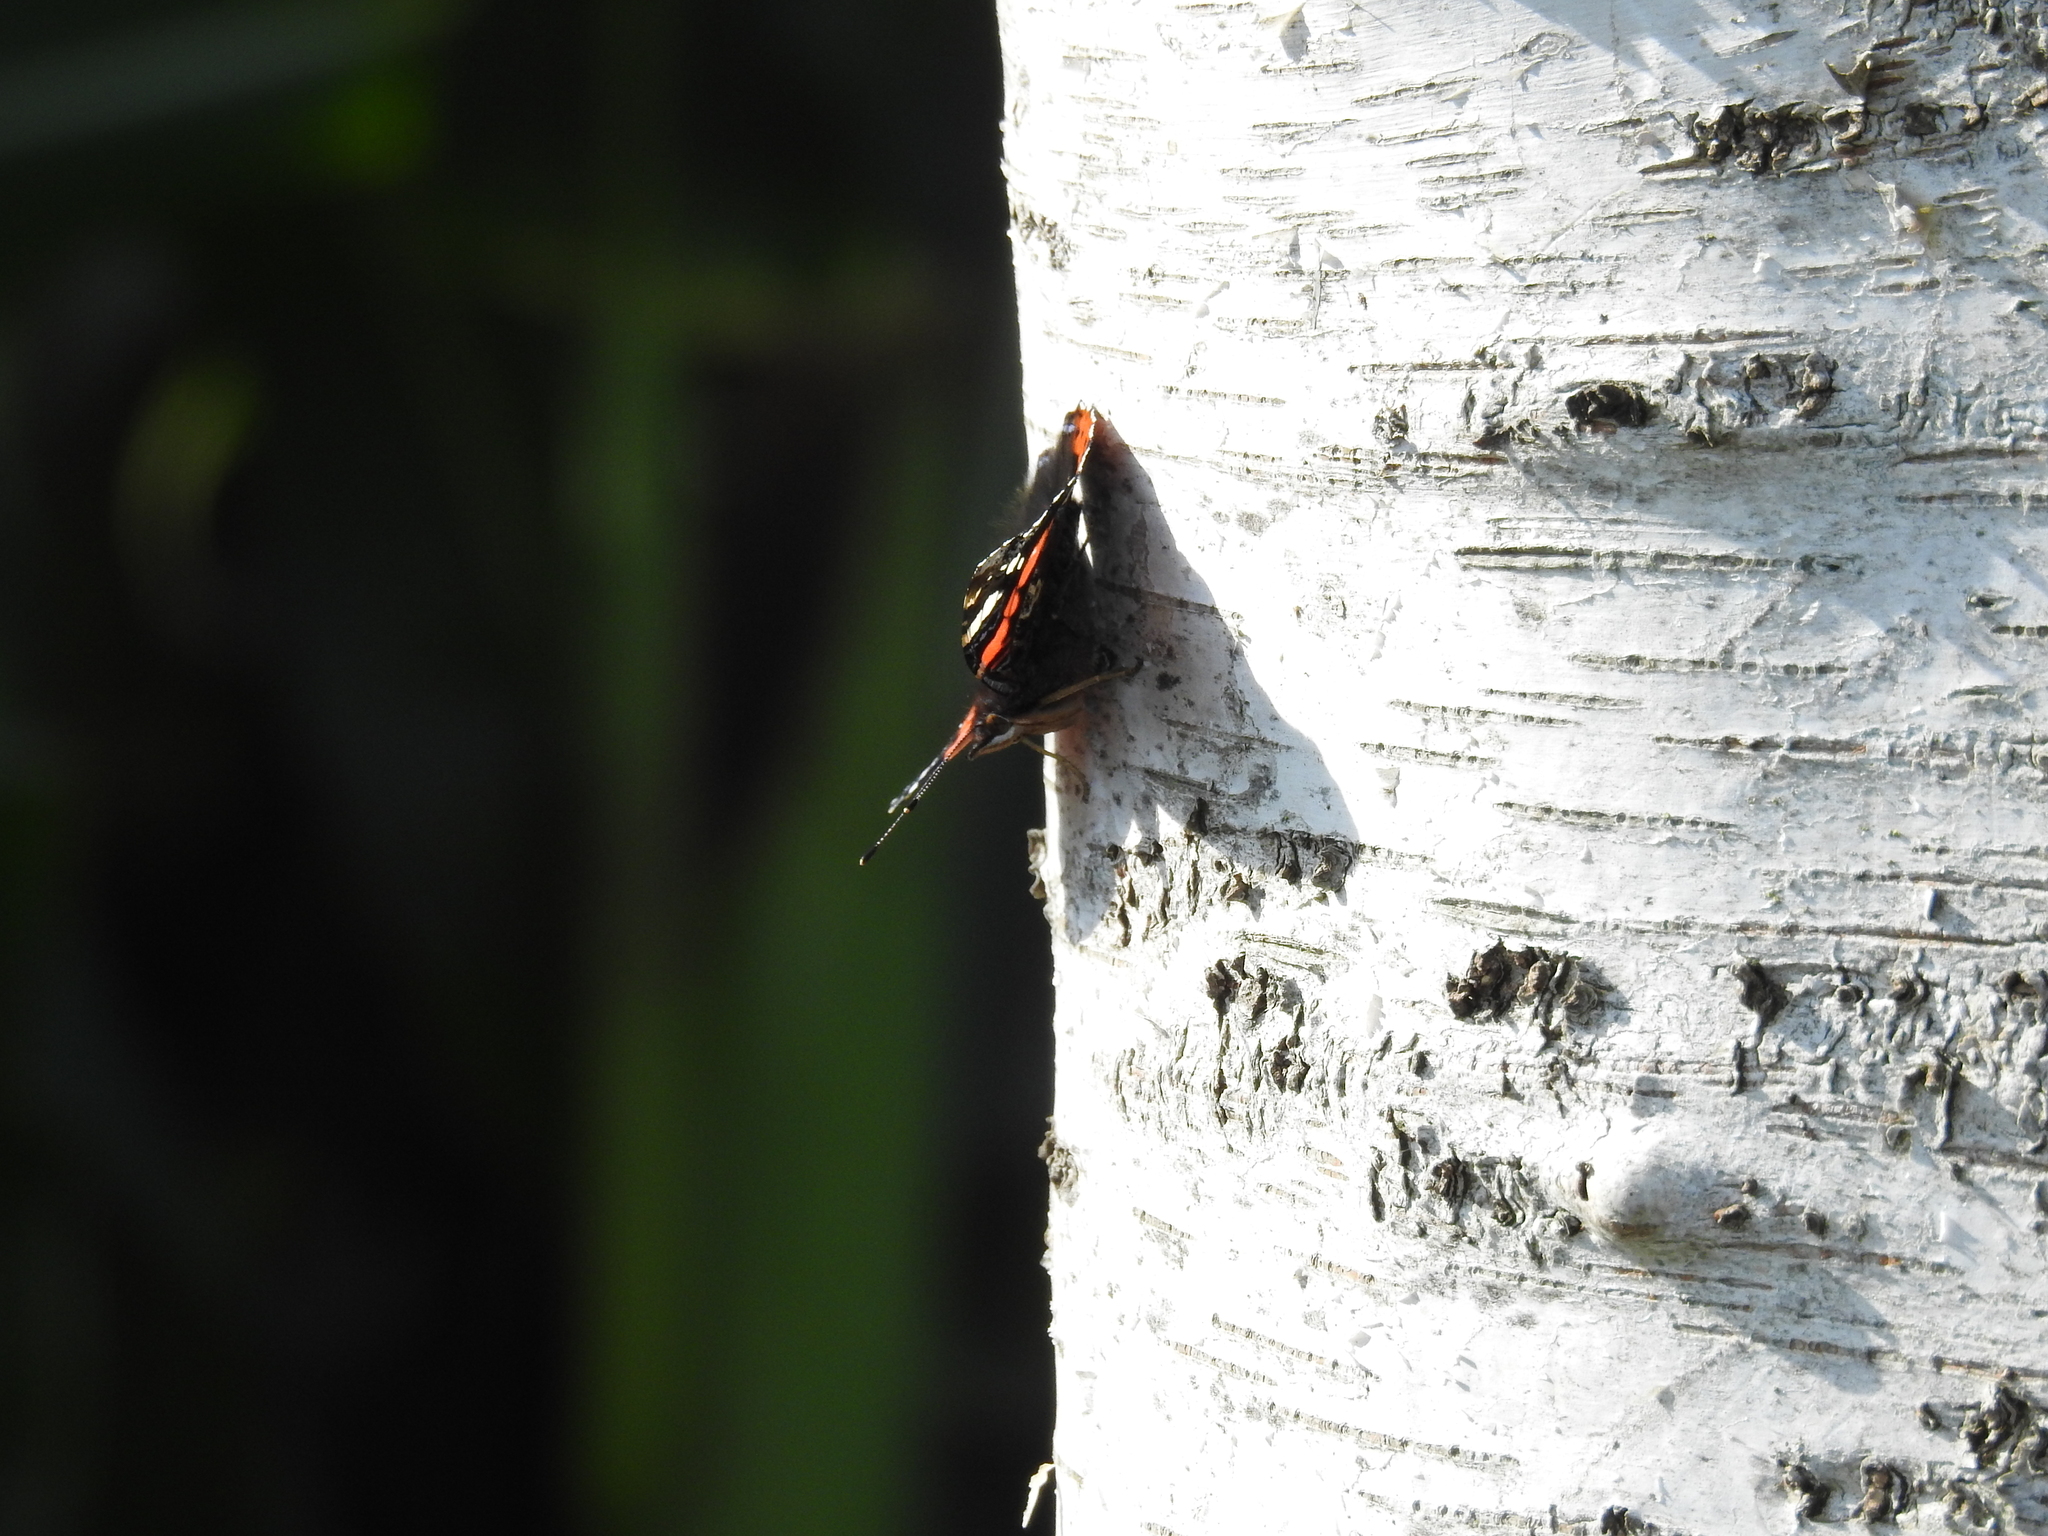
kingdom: Animalia
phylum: Arthropoda
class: Insecta
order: Lepidoptera
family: Nymphalidae
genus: Vanessa
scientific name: Vanessa atalanta
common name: Red admiral
